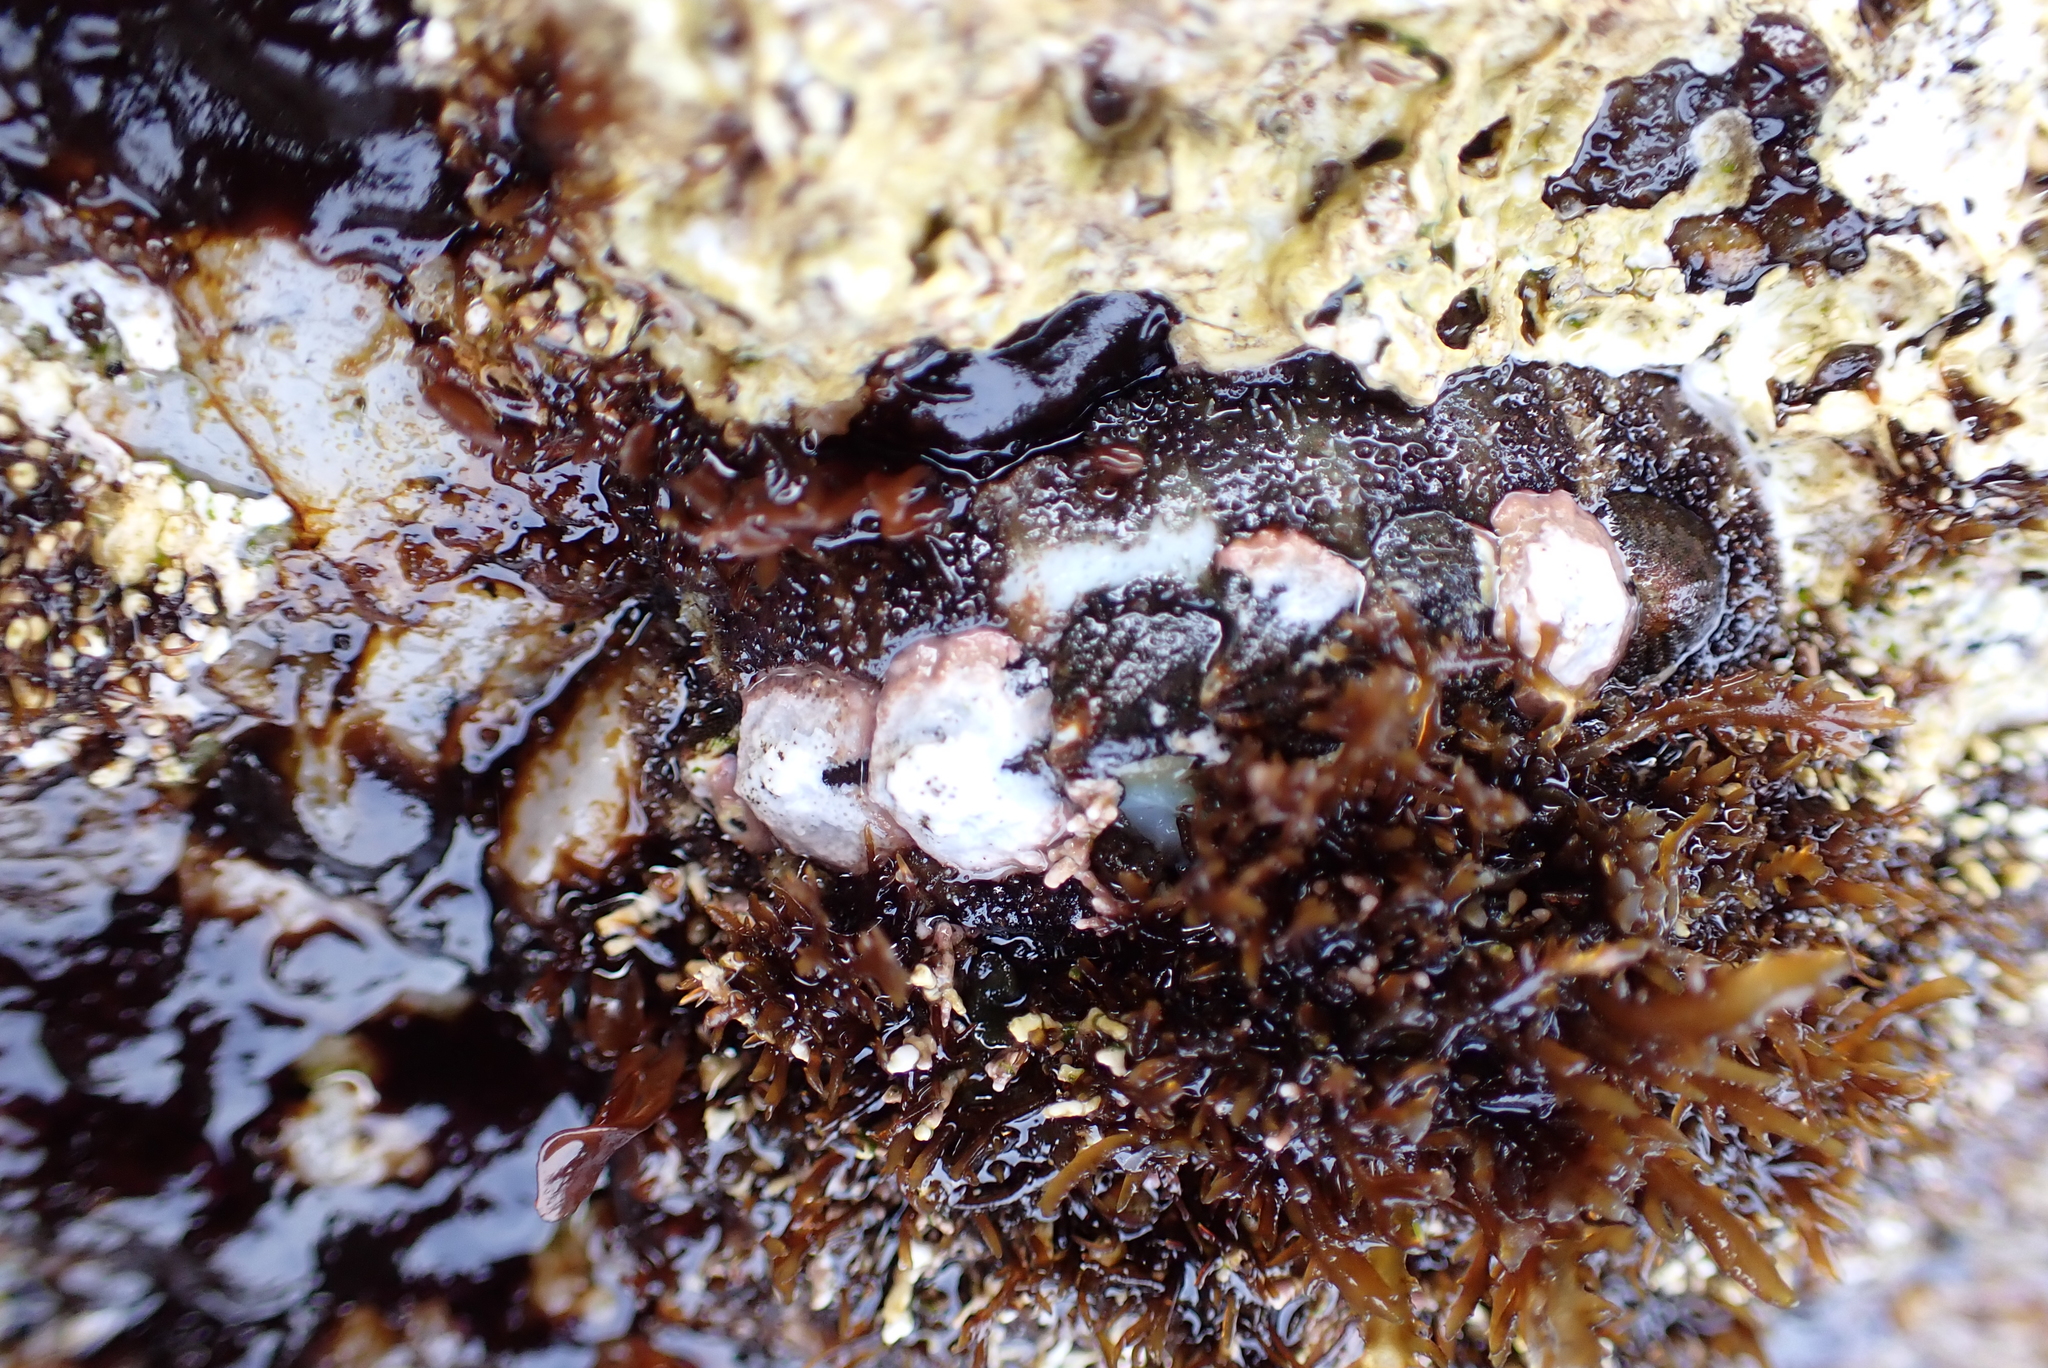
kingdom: Animalia
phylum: Mollusca
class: Polyplacophora
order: Chitonida
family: Tonicellidae
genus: Nuttallina
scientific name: Nuttallina californica
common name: California nuttall chiton
